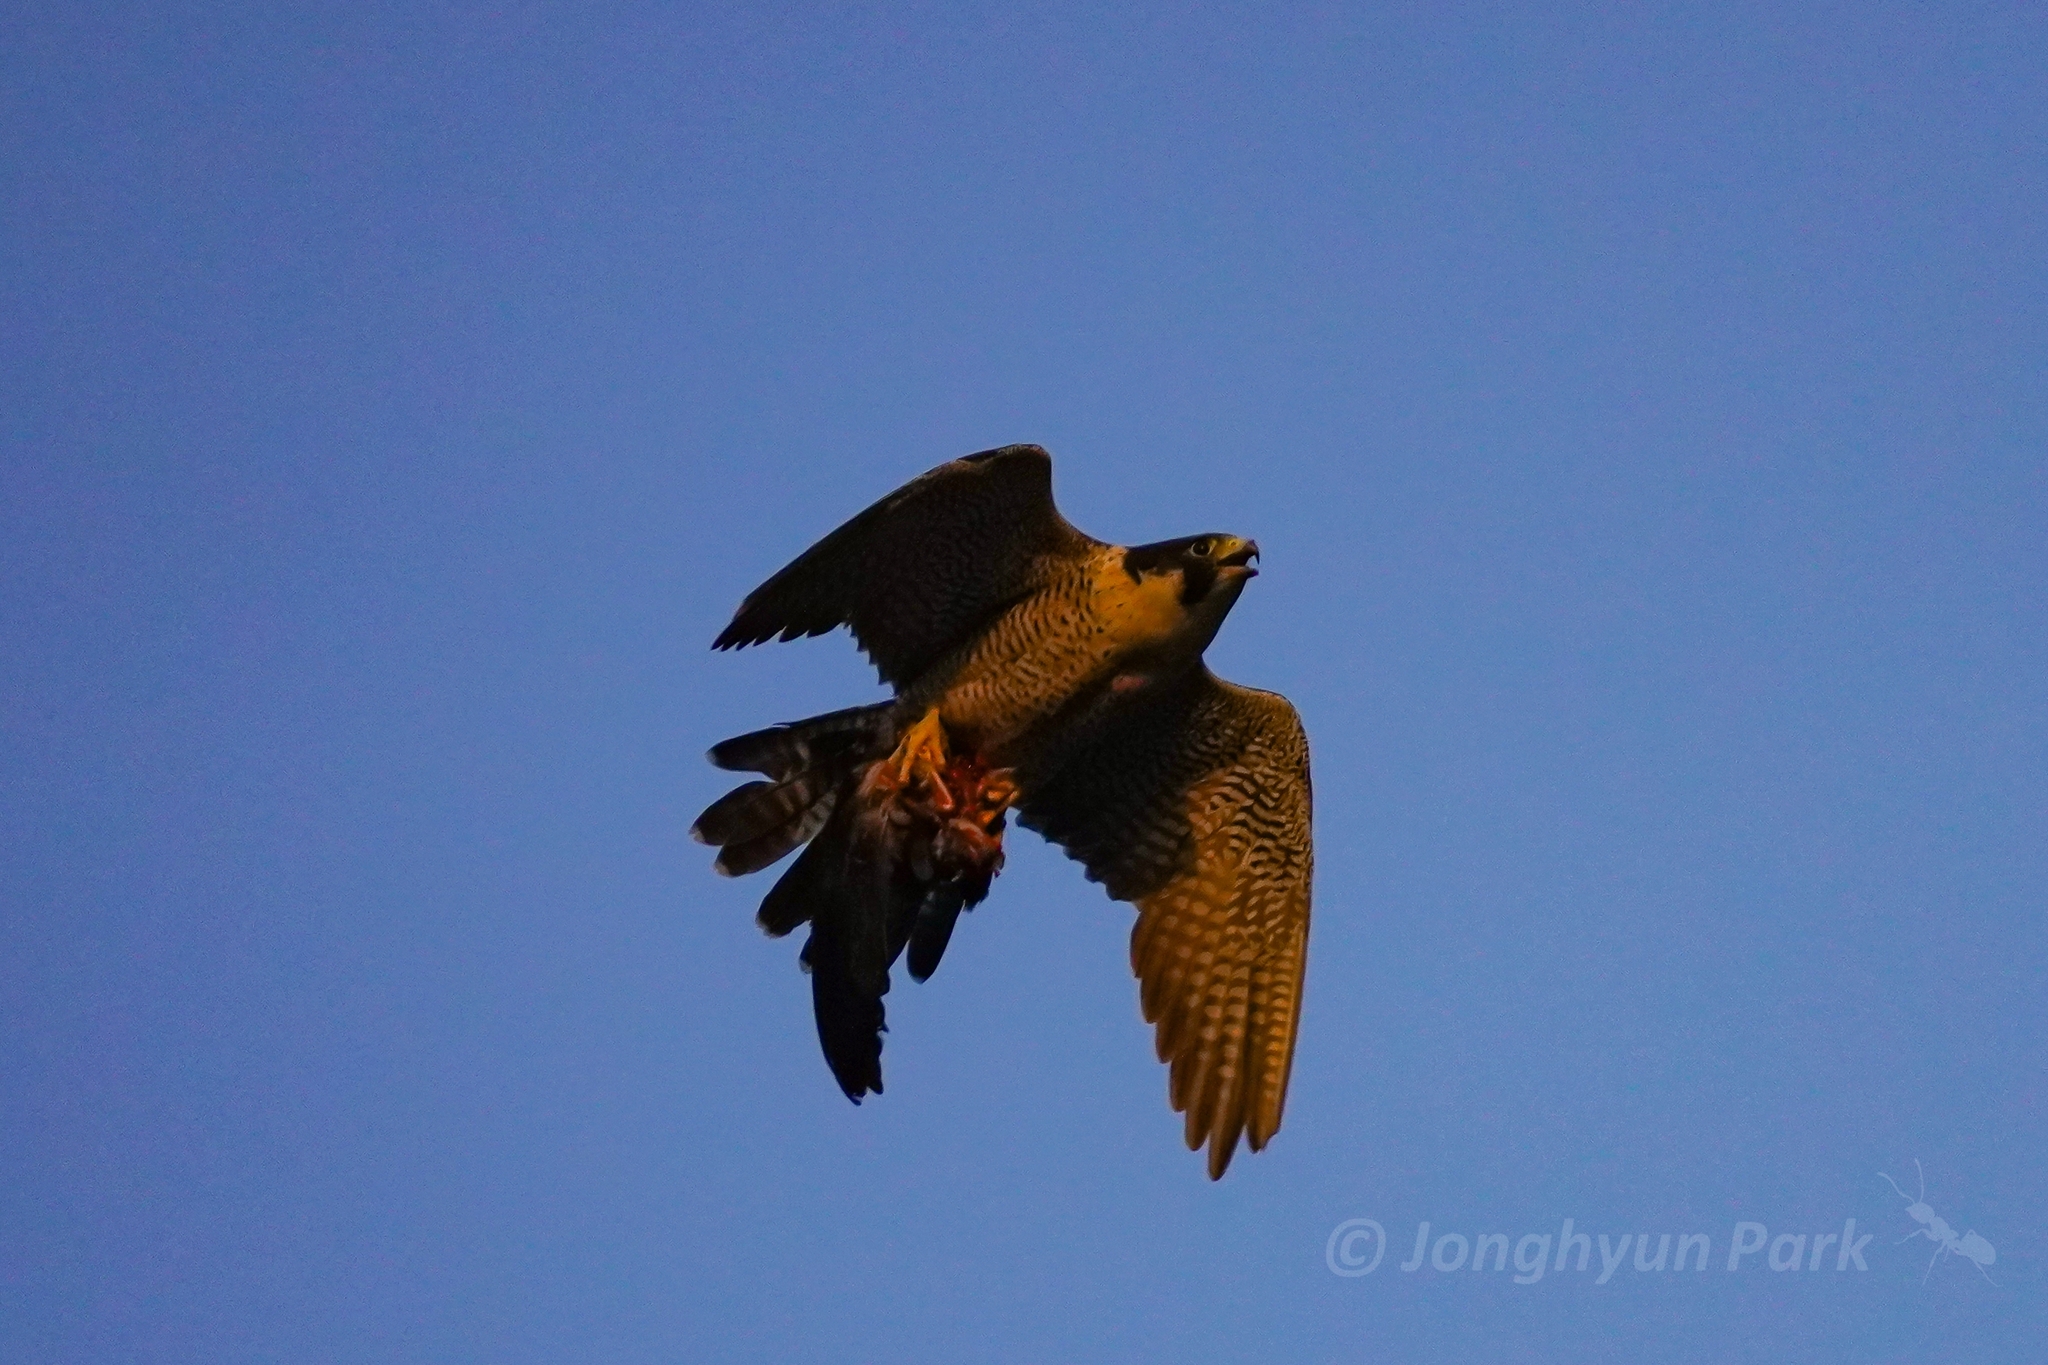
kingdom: Animalia
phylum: Chordata
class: Aves
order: Falconiformes
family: Falconidae
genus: Falco
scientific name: Falco peregrinus
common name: Peregrine falcon
